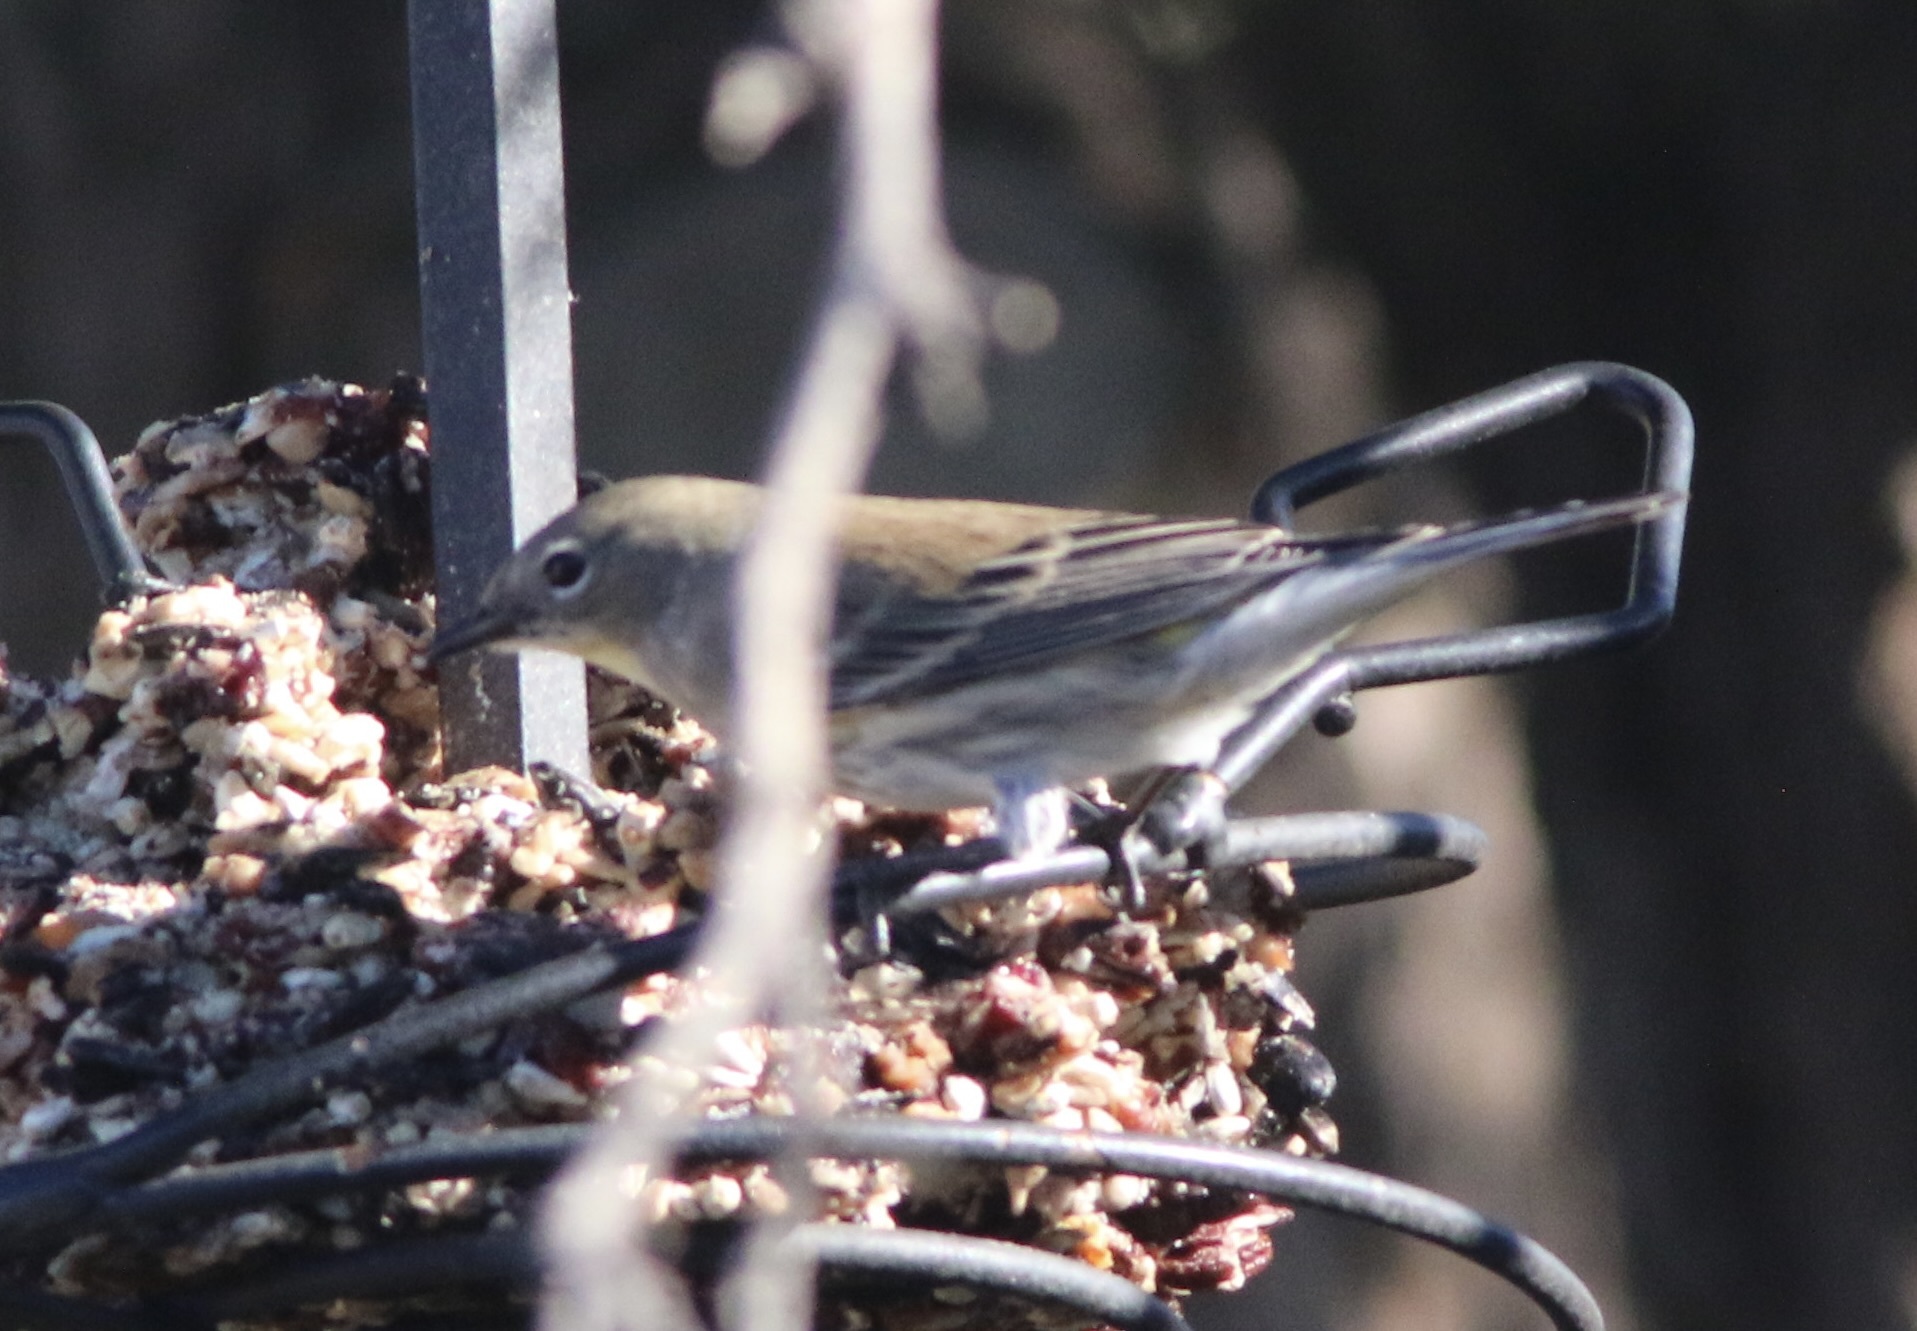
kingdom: Animalia
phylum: Chordata
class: Aves
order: Passeriformes
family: Parulidae
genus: Setophaga
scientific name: Setophaga coronata
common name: Myrtle warbler
